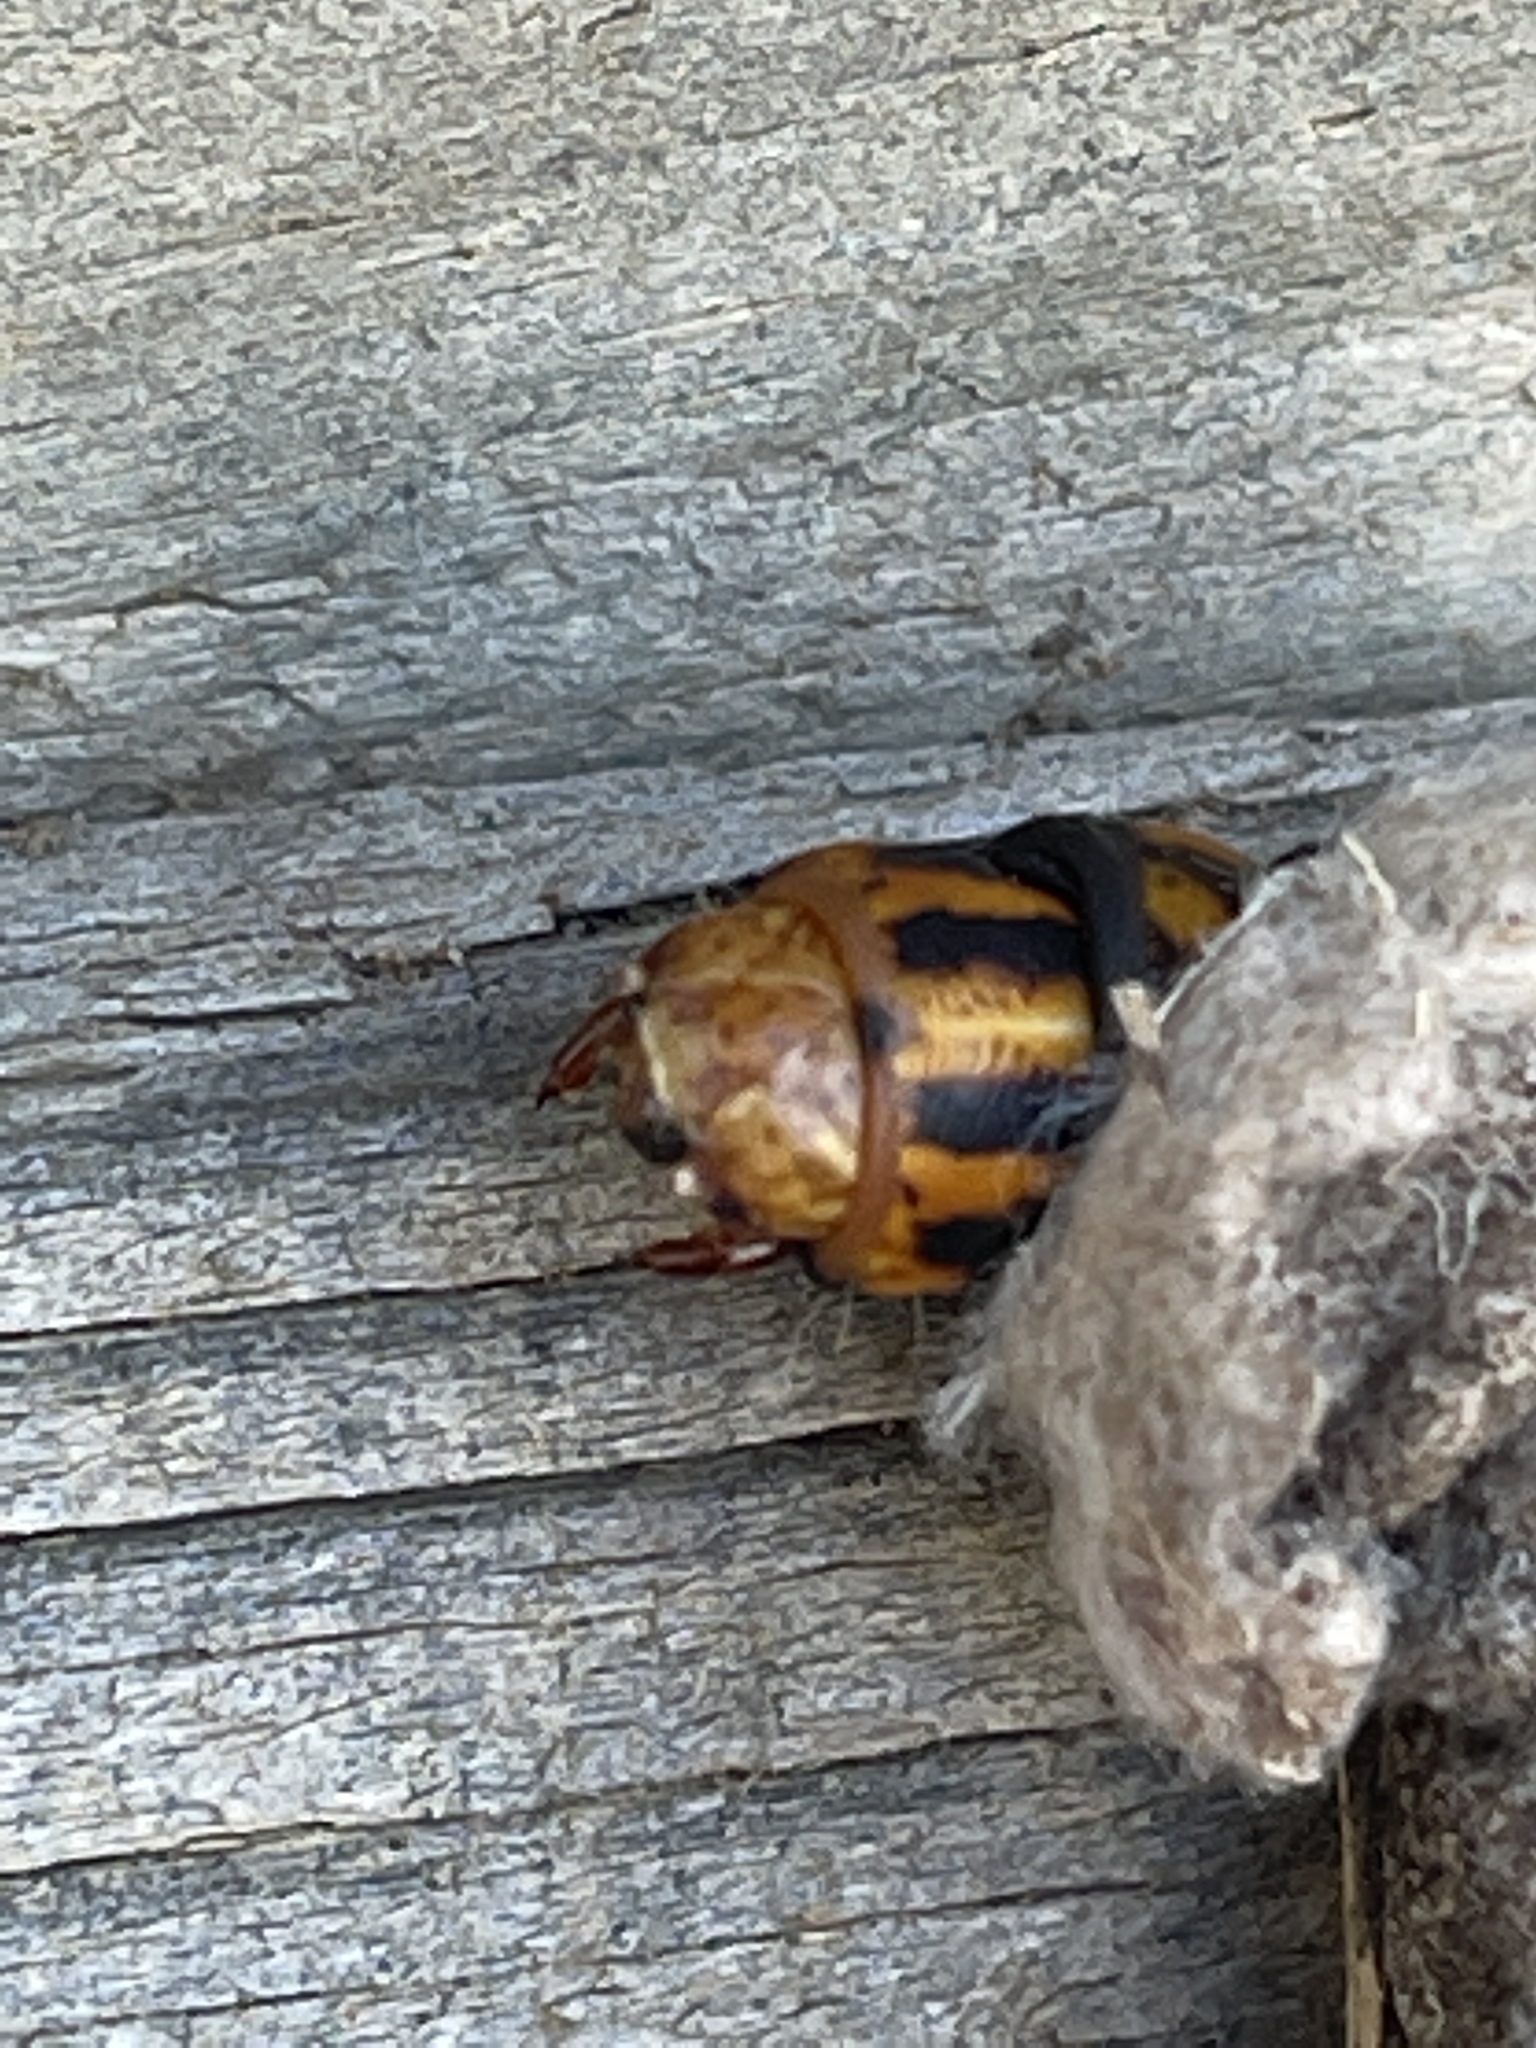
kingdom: Animalia
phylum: Arthropoda
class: Insecta
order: Lepidoptera
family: Psychidae
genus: Metura
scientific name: Metura elongatus
